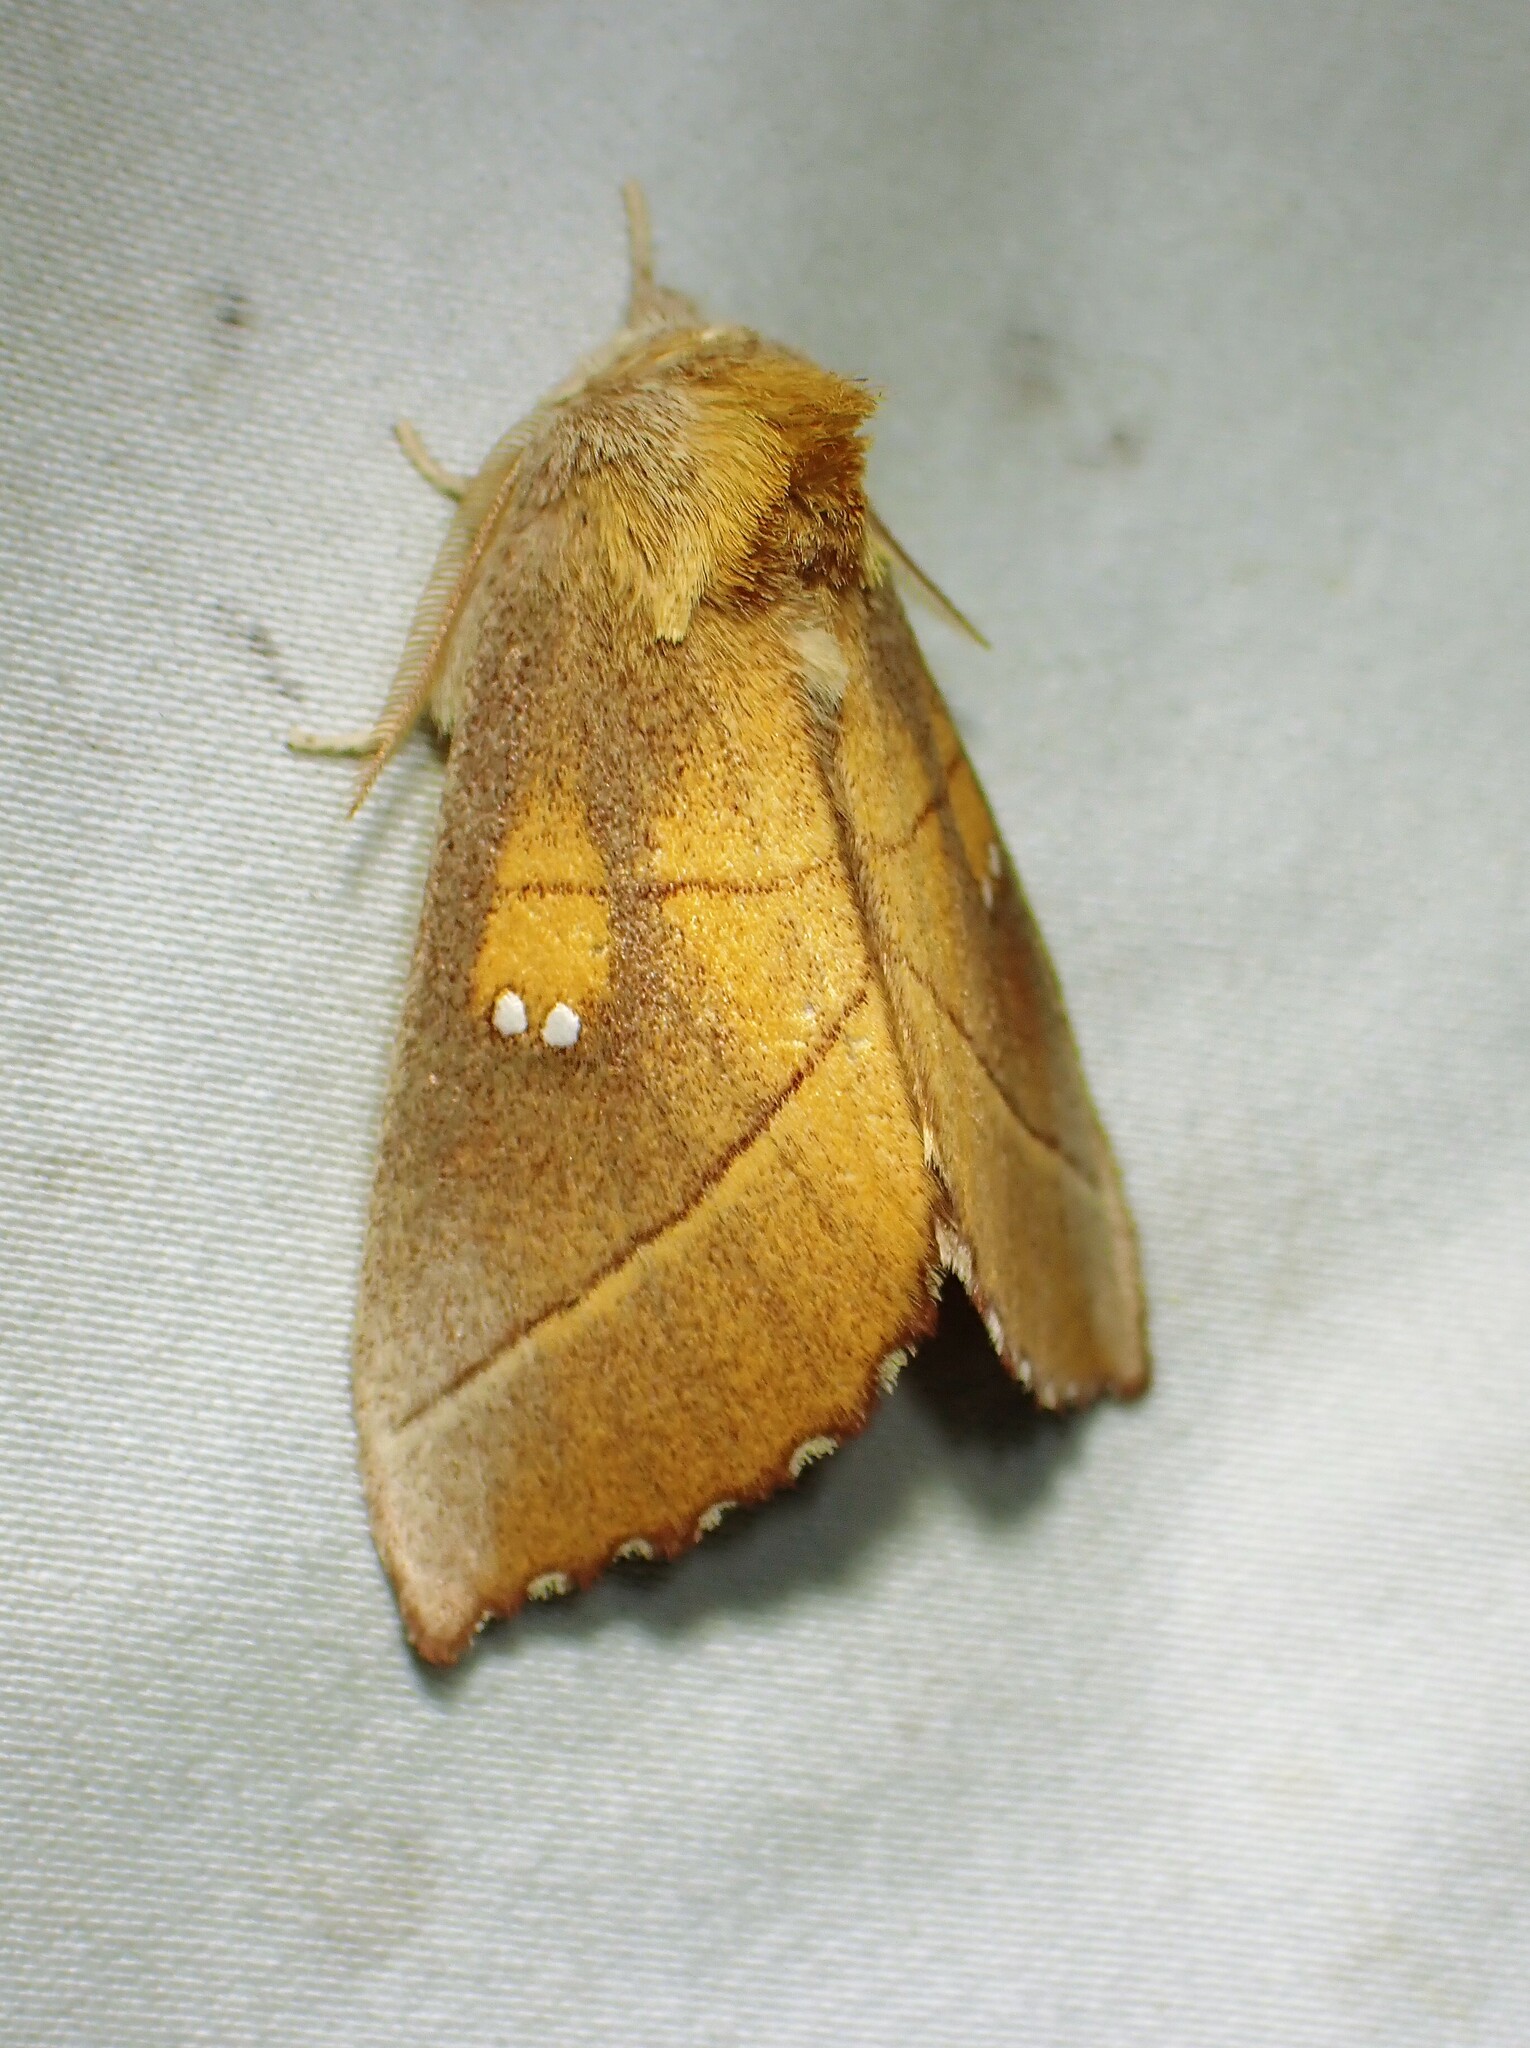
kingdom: Animalia
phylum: Arthropoda
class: Insecta
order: Lepidoptera
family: Notodontidae
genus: Nadata
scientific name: Nadata gibbosa
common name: White-dotted prominent
